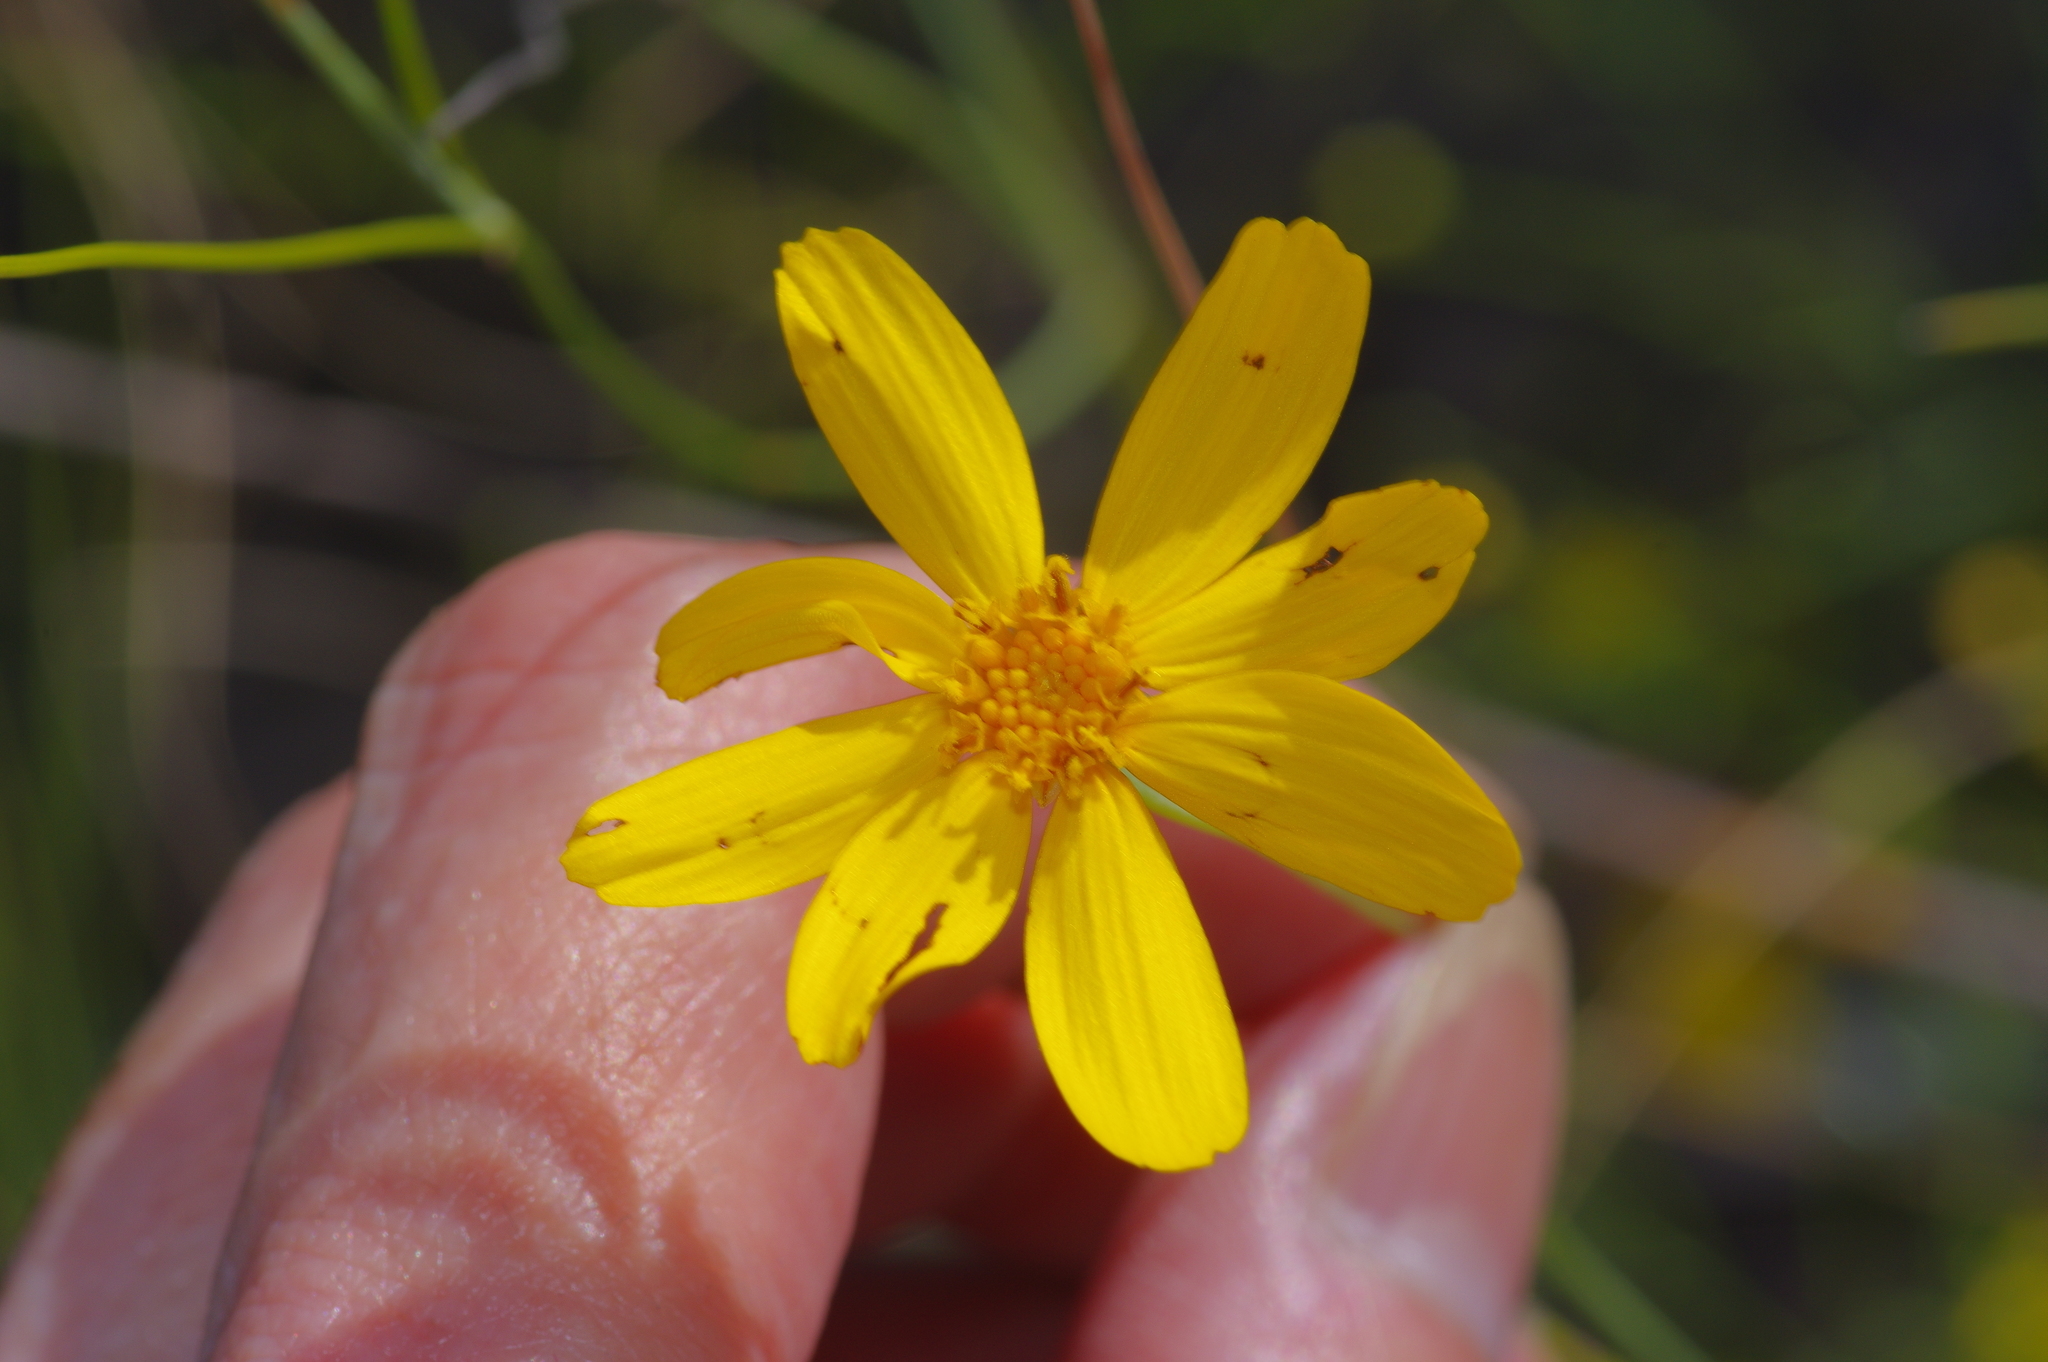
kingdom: Plantae
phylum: Tracheophyta
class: Magnoliopsida
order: Asterales
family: Asteraceae
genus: Thelesperma
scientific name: Thelesperma simplicifolium
